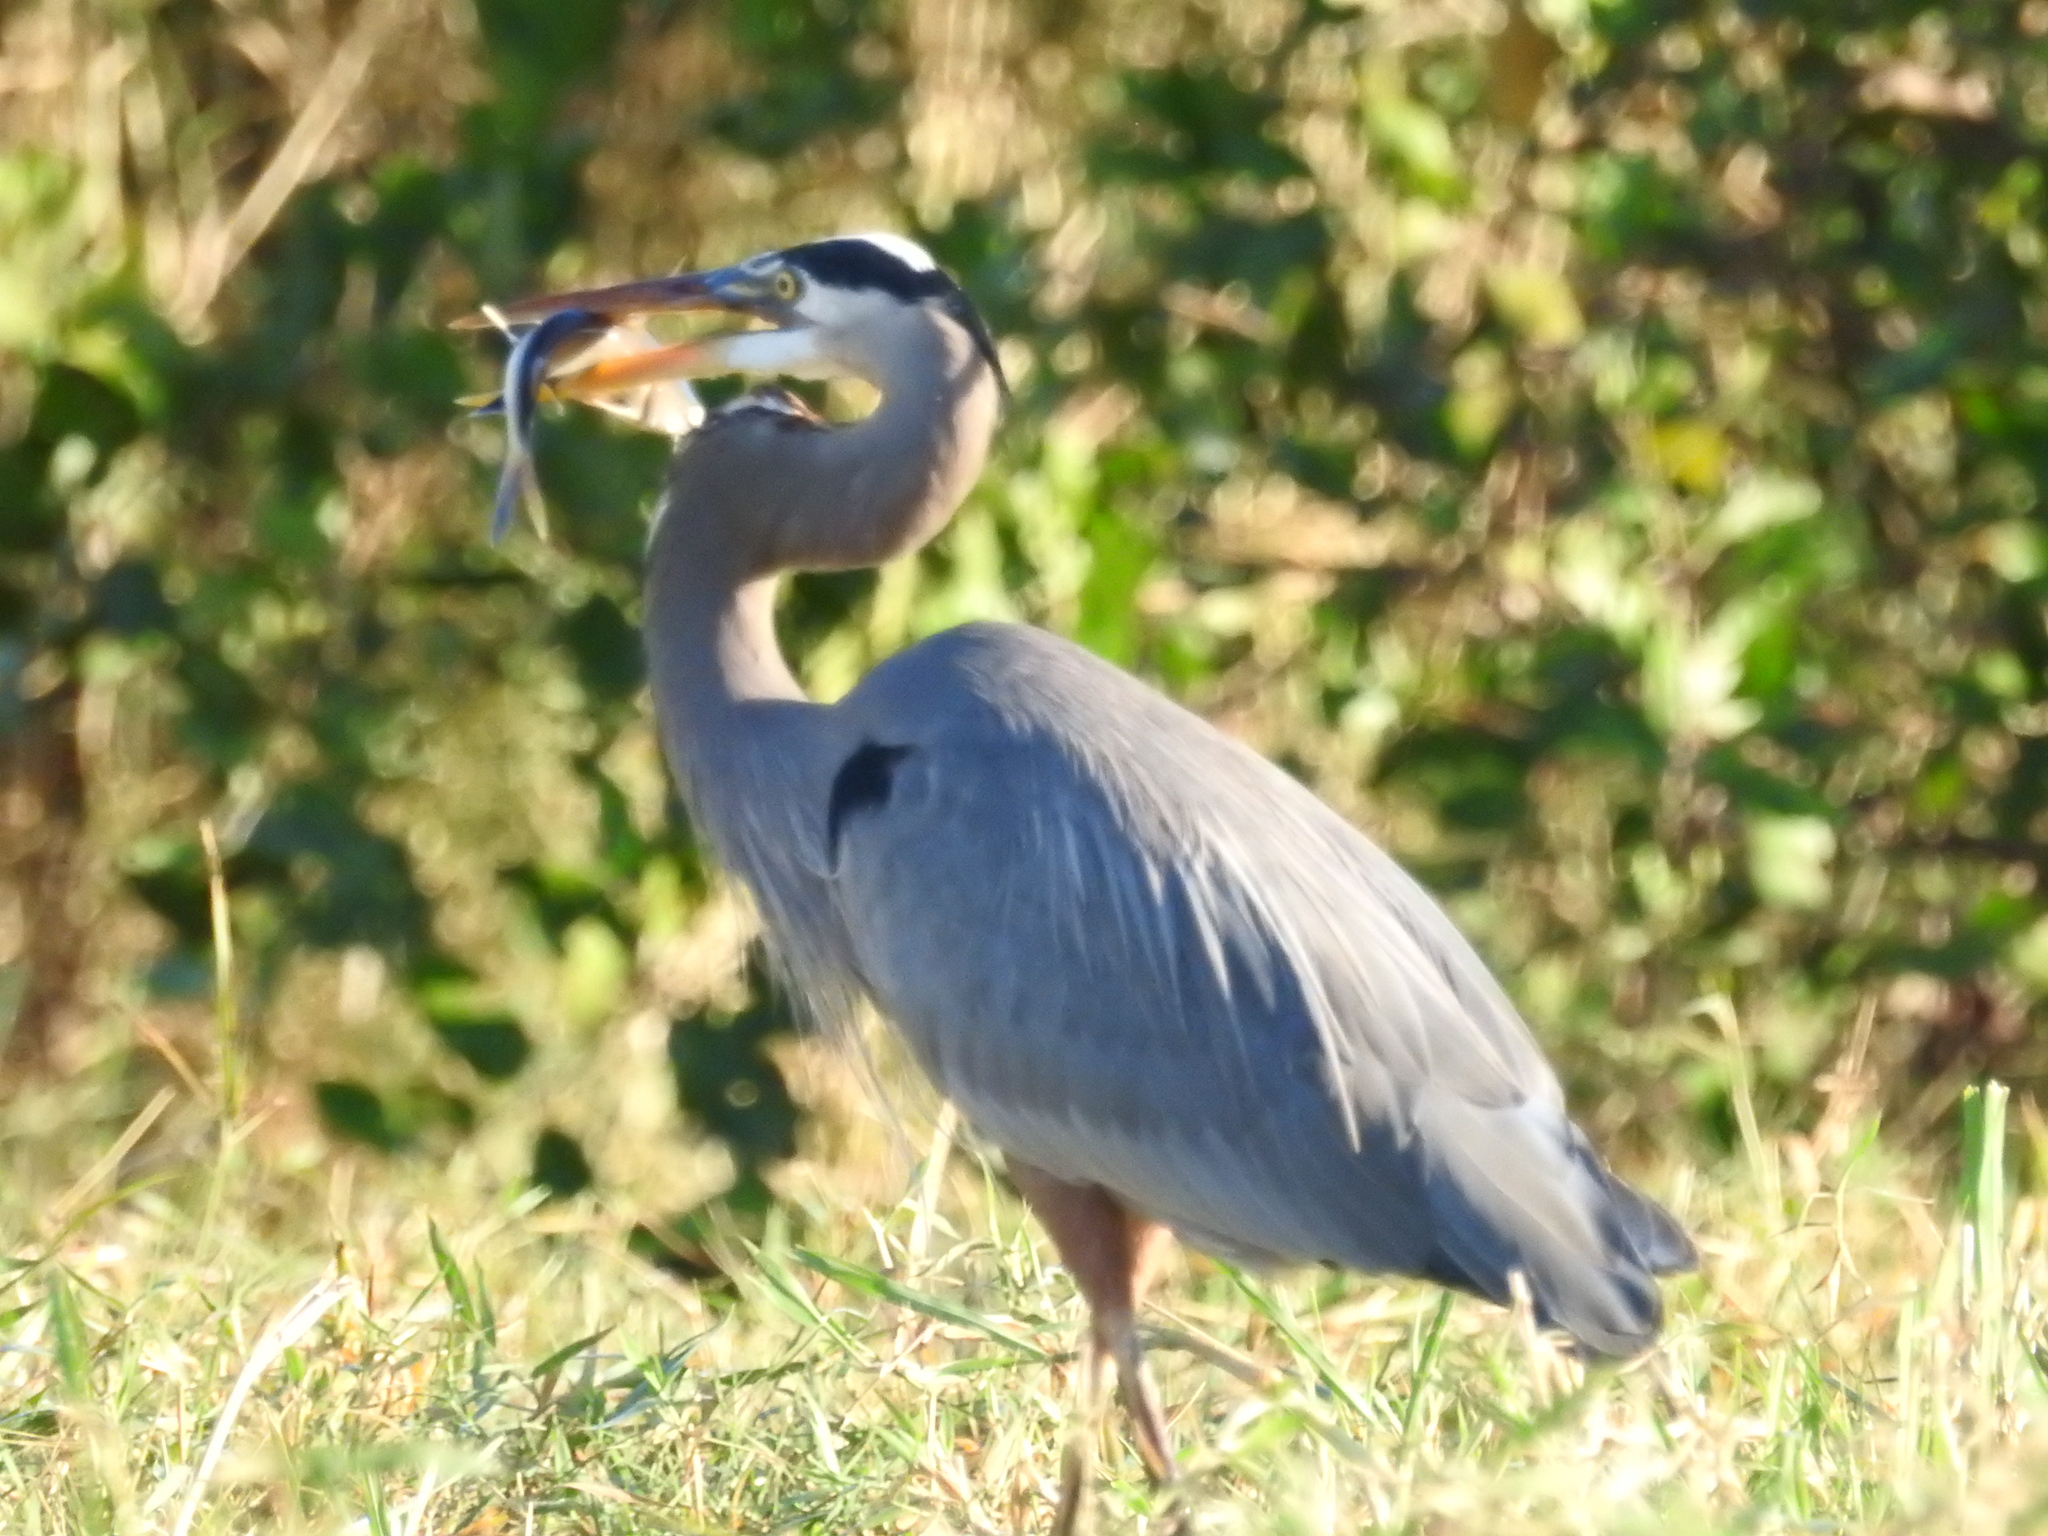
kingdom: Animalia
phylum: Chordata
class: Aves
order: Pelecaniformes
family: Ardeidae
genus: Ardea
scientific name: Ardea herodias
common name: Great blue heron
